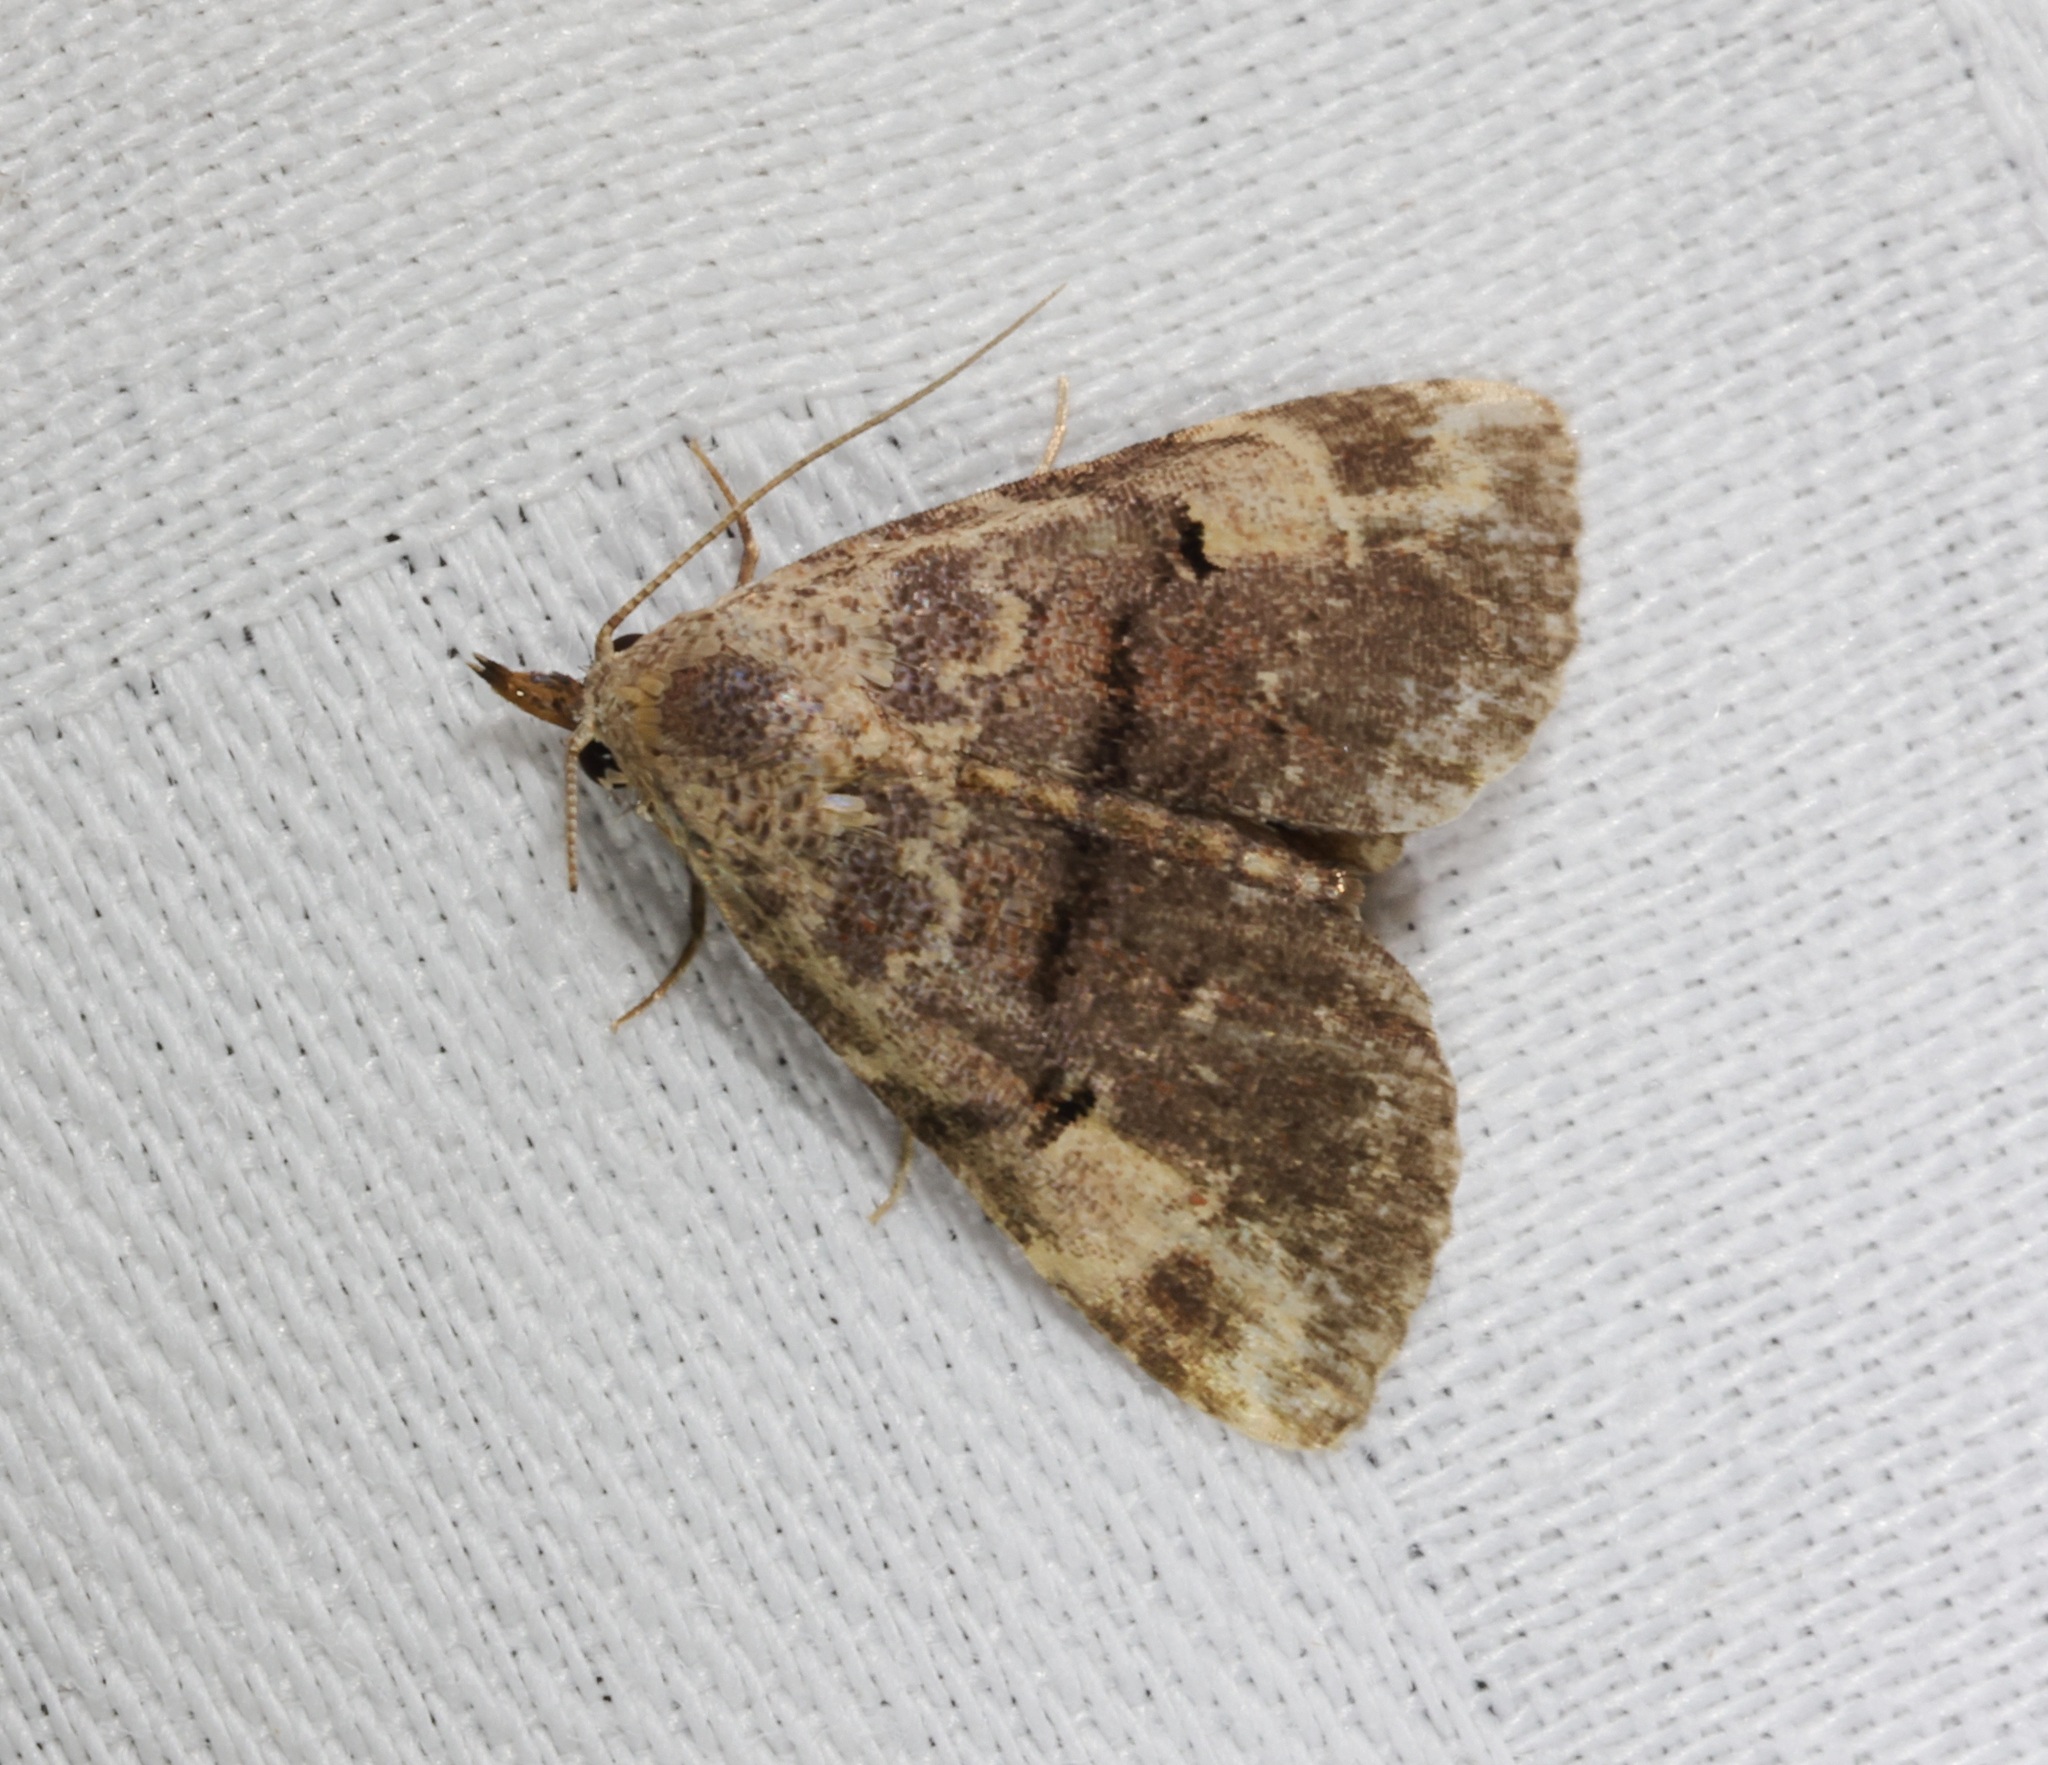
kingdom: Animalia
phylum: Arthropoda
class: Insecta
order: Lepidoptera
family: Erebidae
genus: Maguda
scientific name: Maguda suffusa
